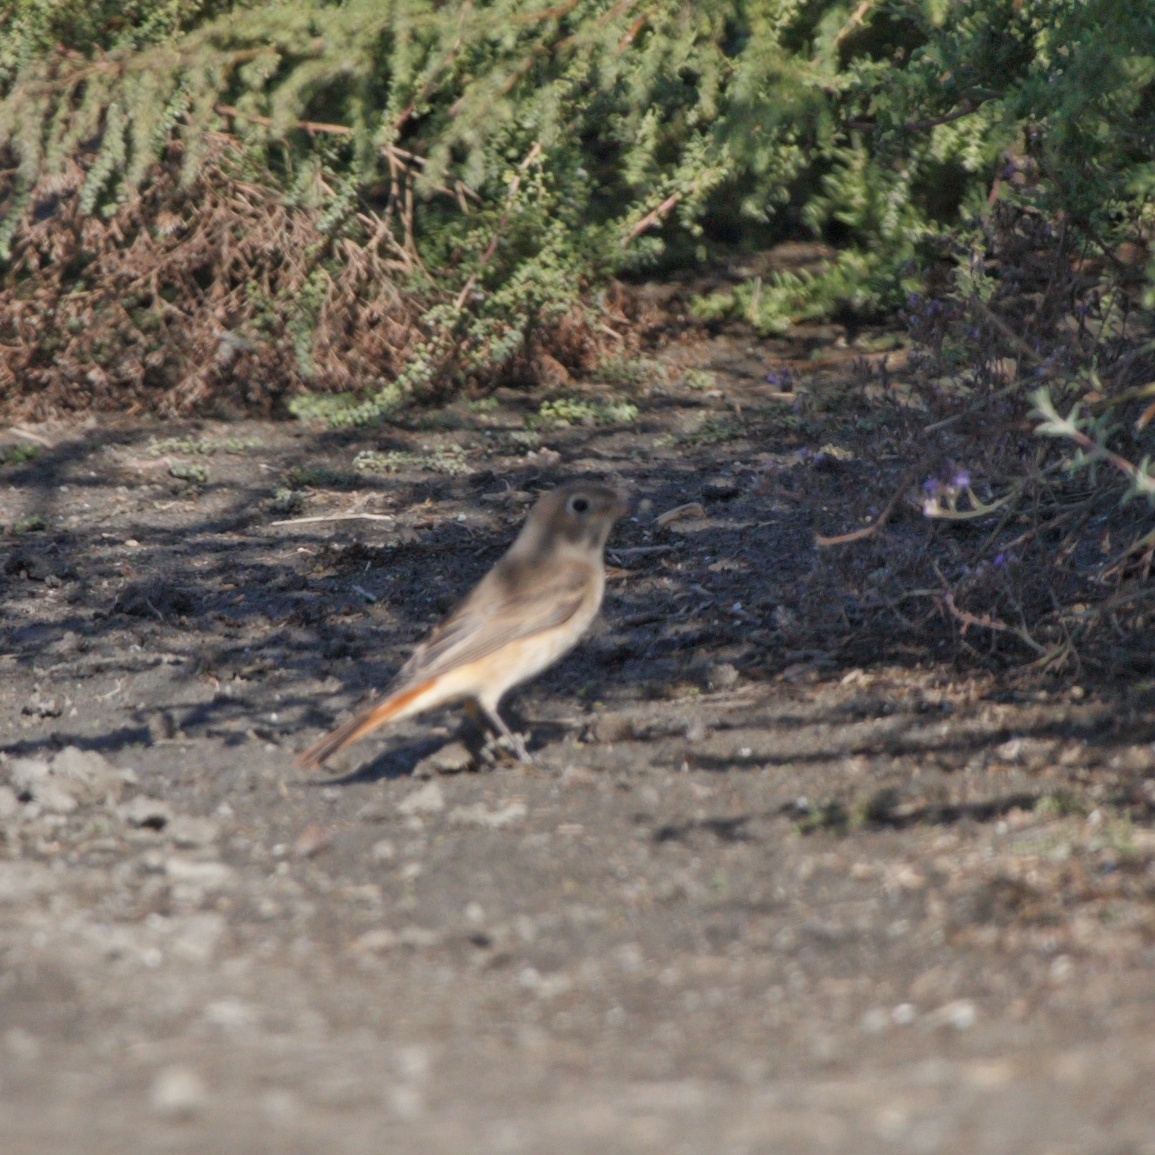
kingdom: Animalia
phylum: Chordata
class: Aves
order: Passeriformes
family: Muscicapidae
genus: Phoenicurus
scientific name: Phoenicurus phoenicurus
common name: Common redstart
